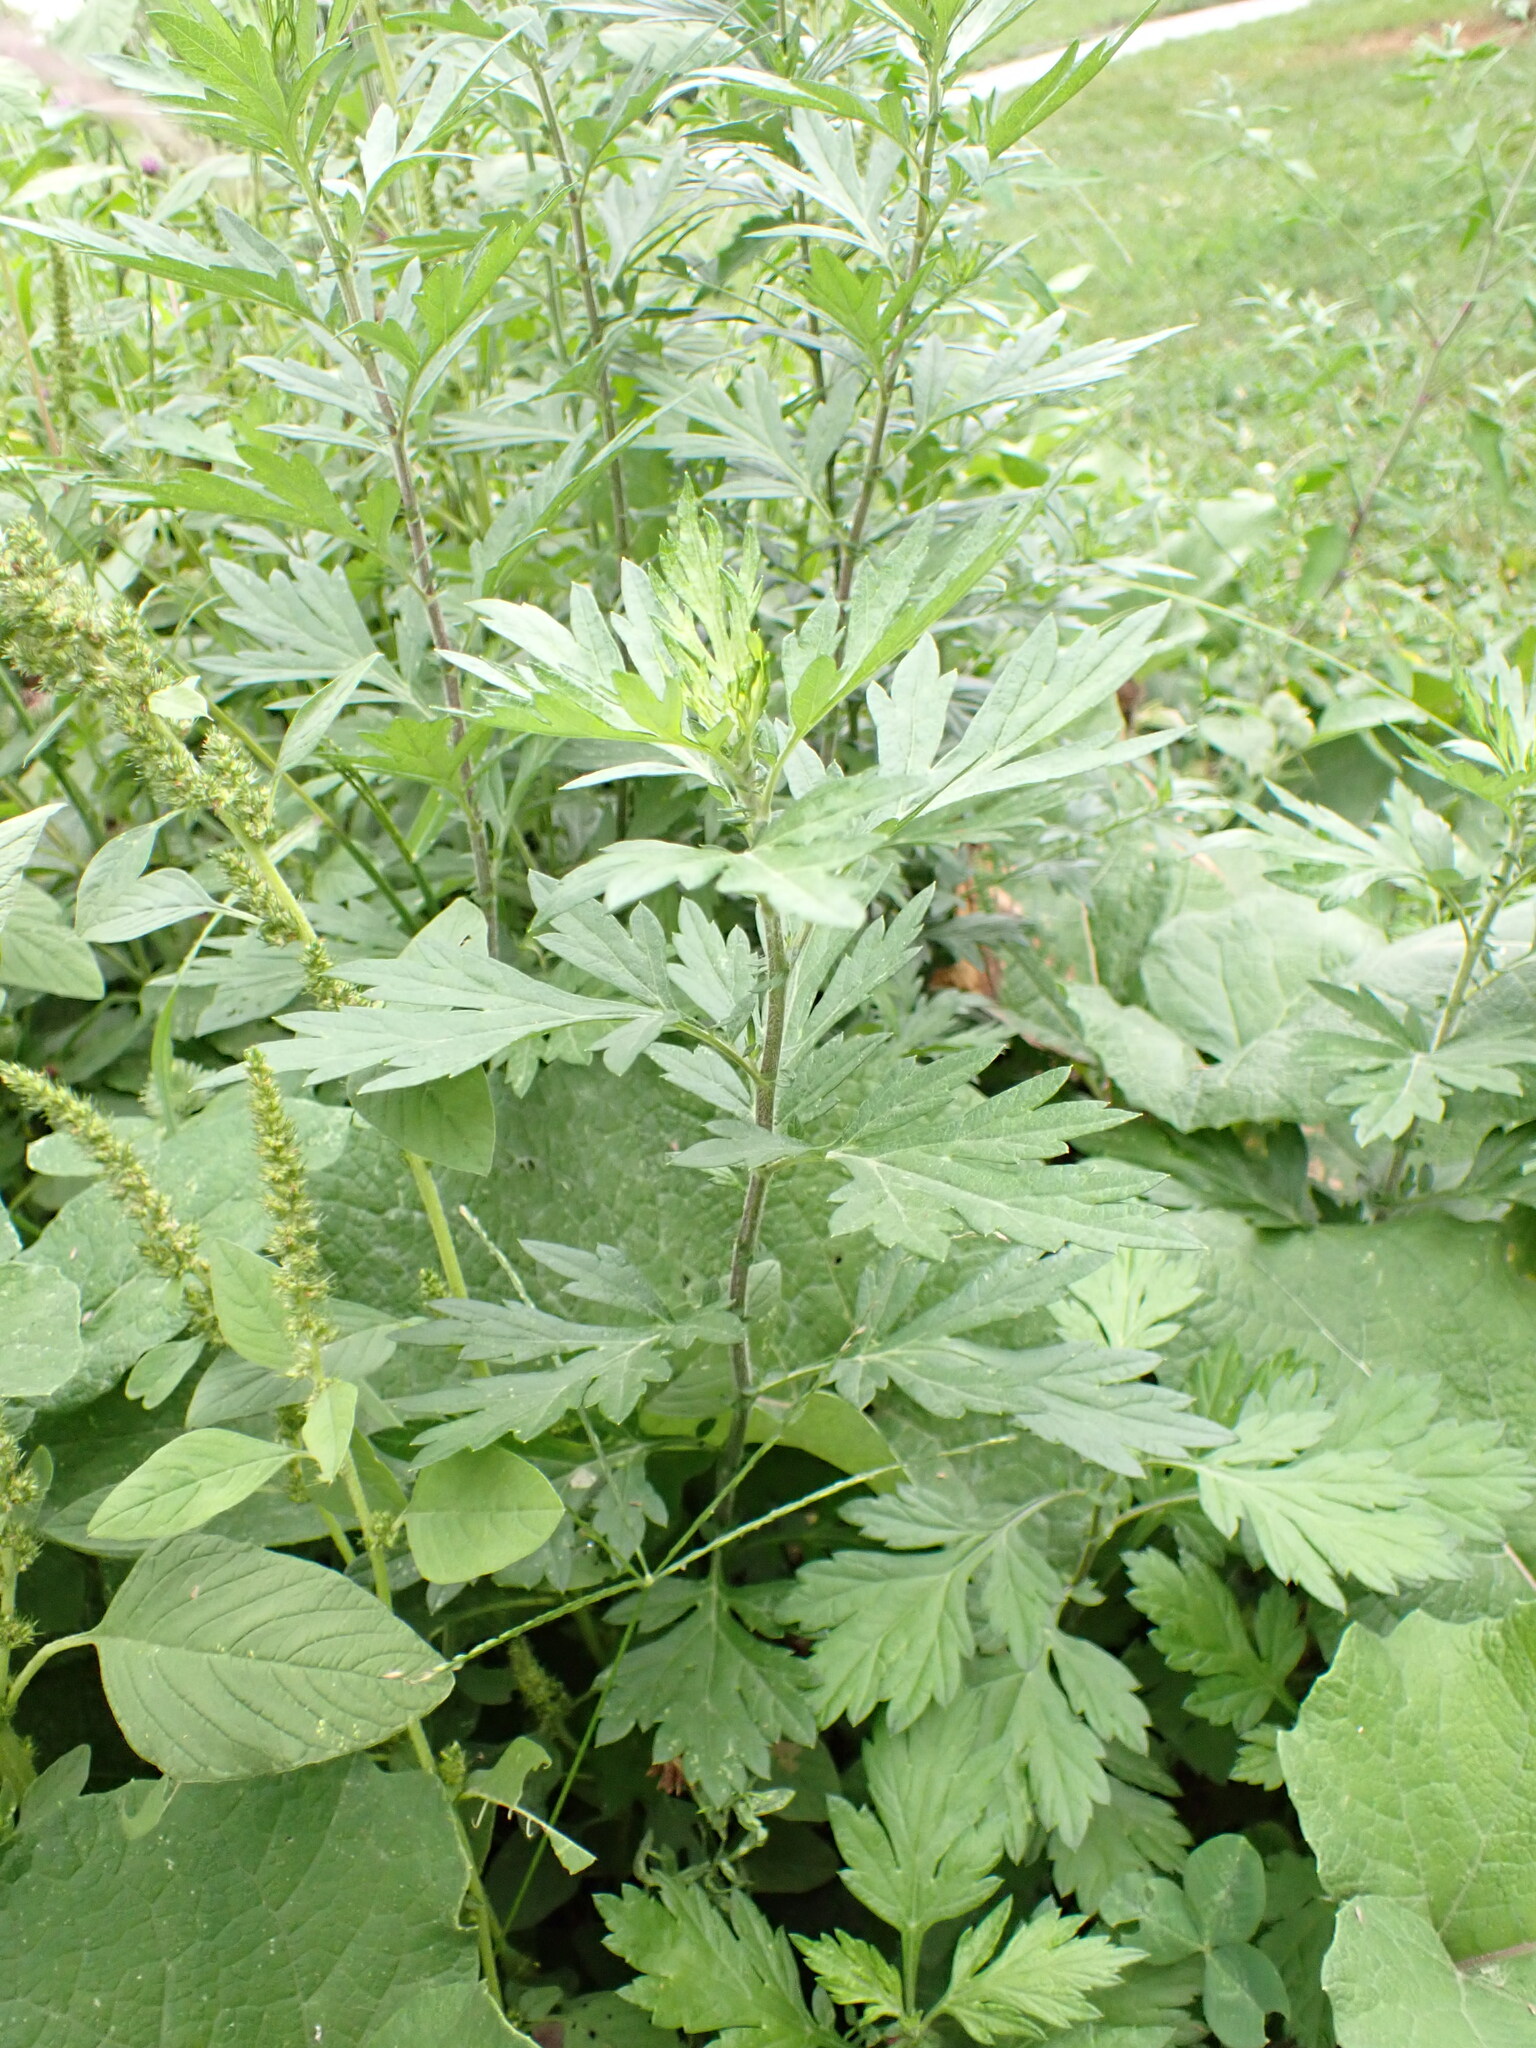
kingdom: Plantae
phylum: Tracheophyta
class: Magnoliopsida
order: Asterales
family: Asteraceae
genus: Artemisia
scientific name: Artemisia vulgaris
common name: Mugwort
